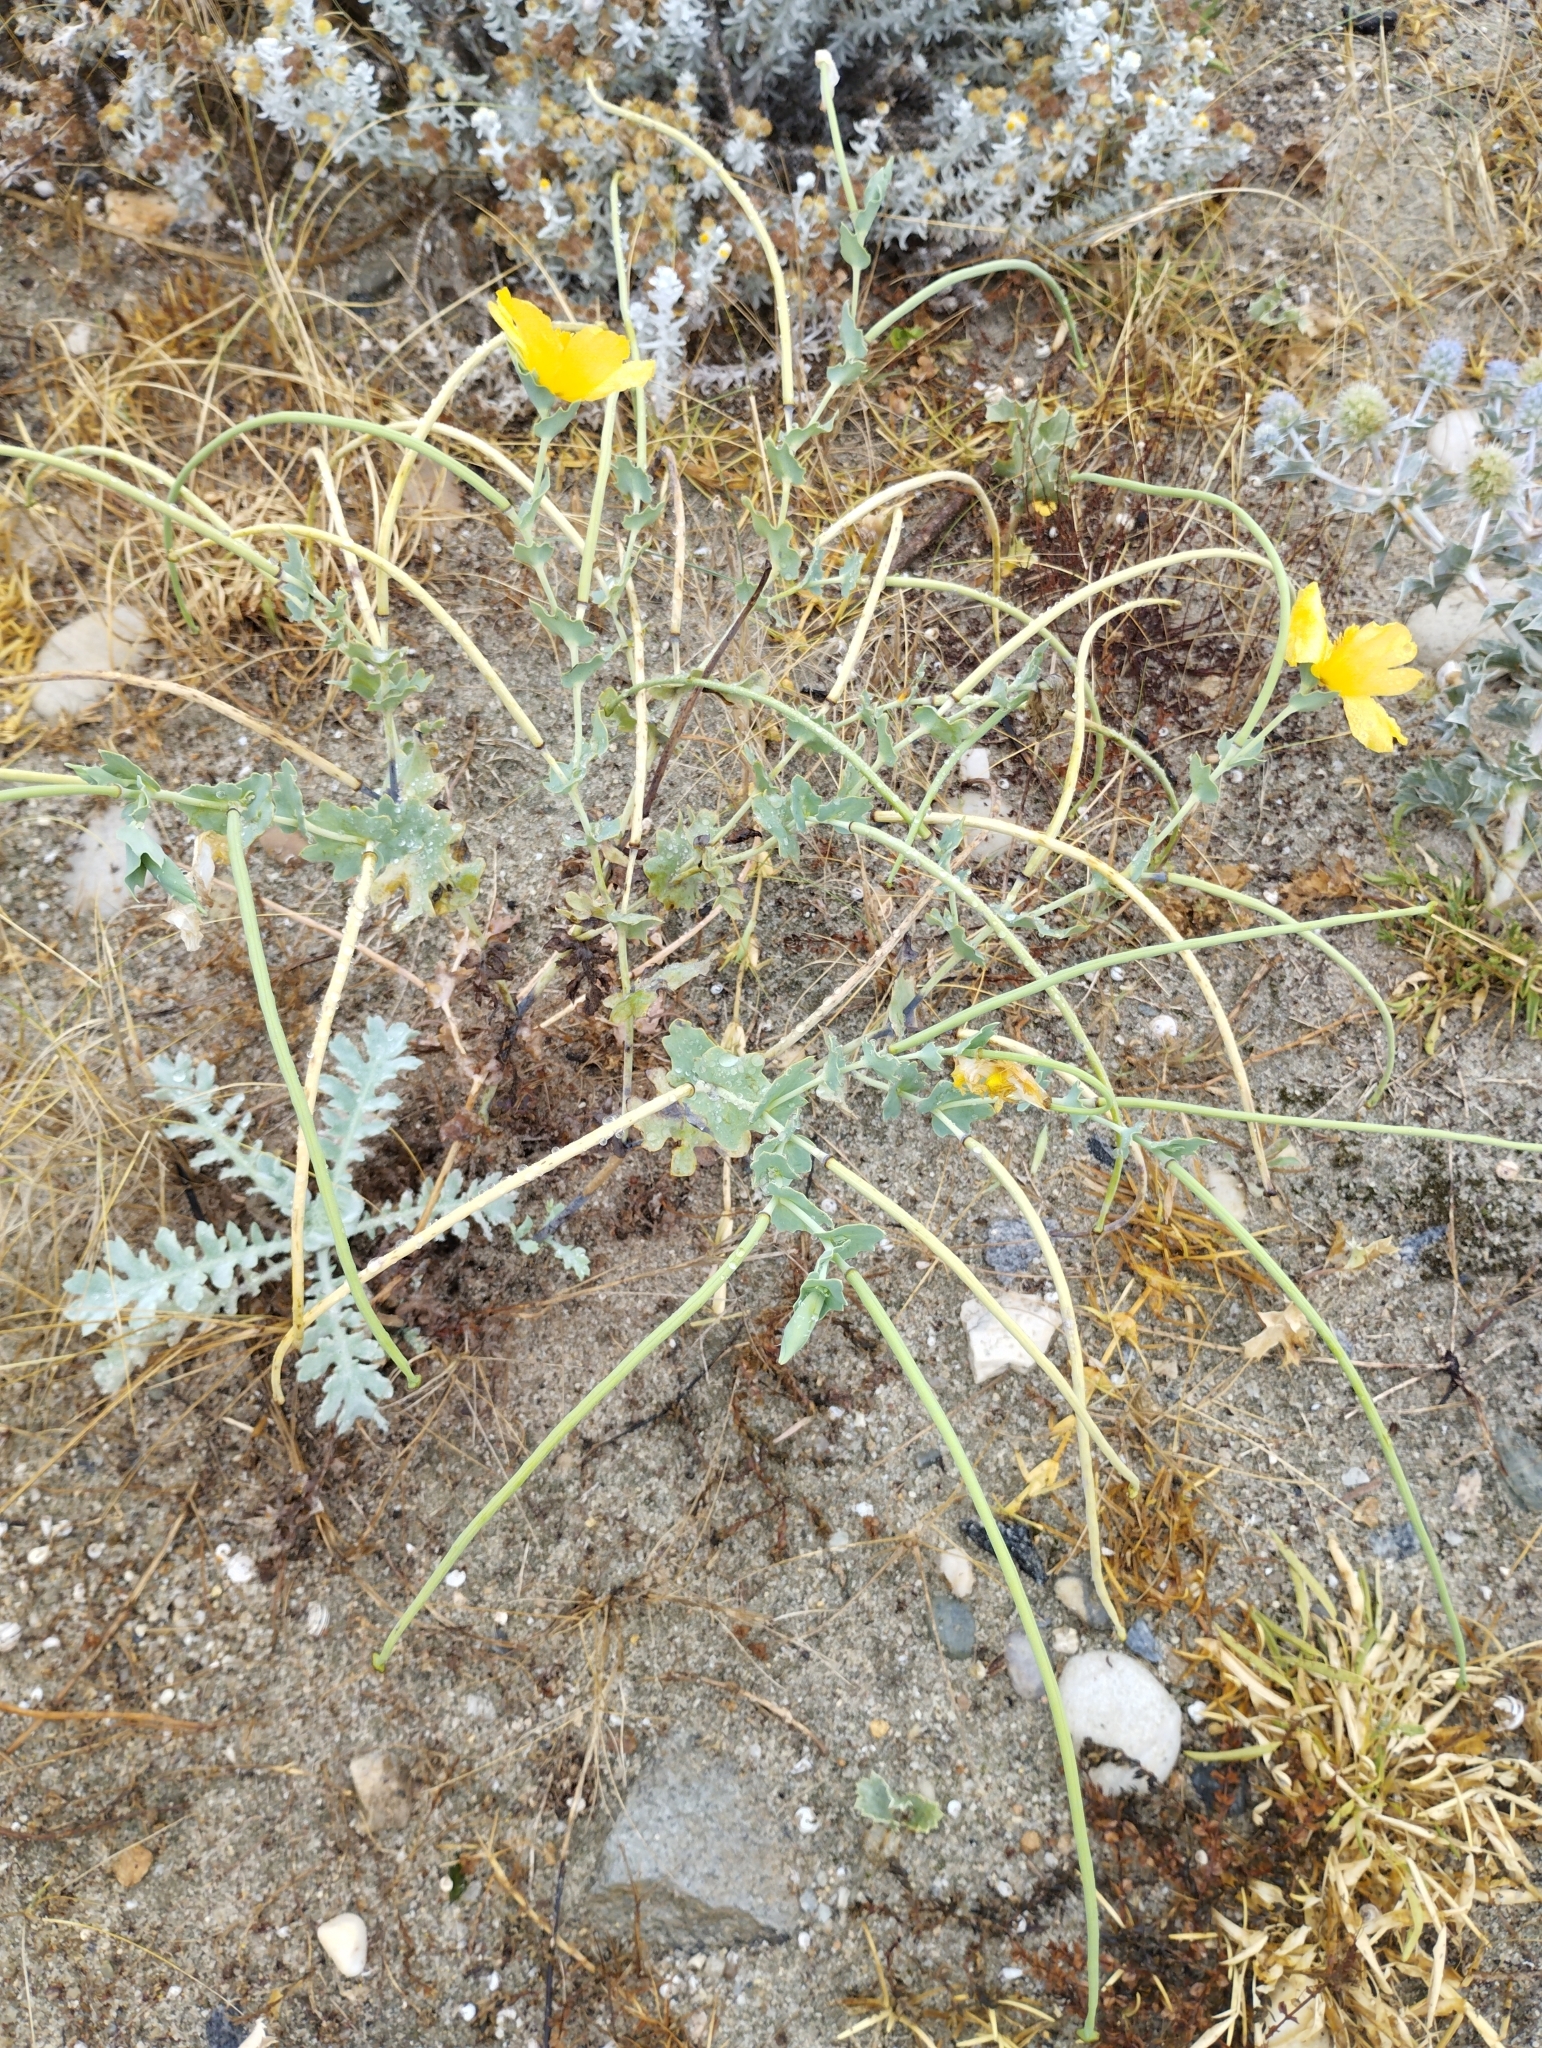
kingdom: Plantae
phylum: Tracheophyta
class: Magnoliopsida
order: Ranunculales
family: Papaveraceae
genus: Glaucium
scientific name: Glaucium flavum
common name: Yellow horned-poppy
